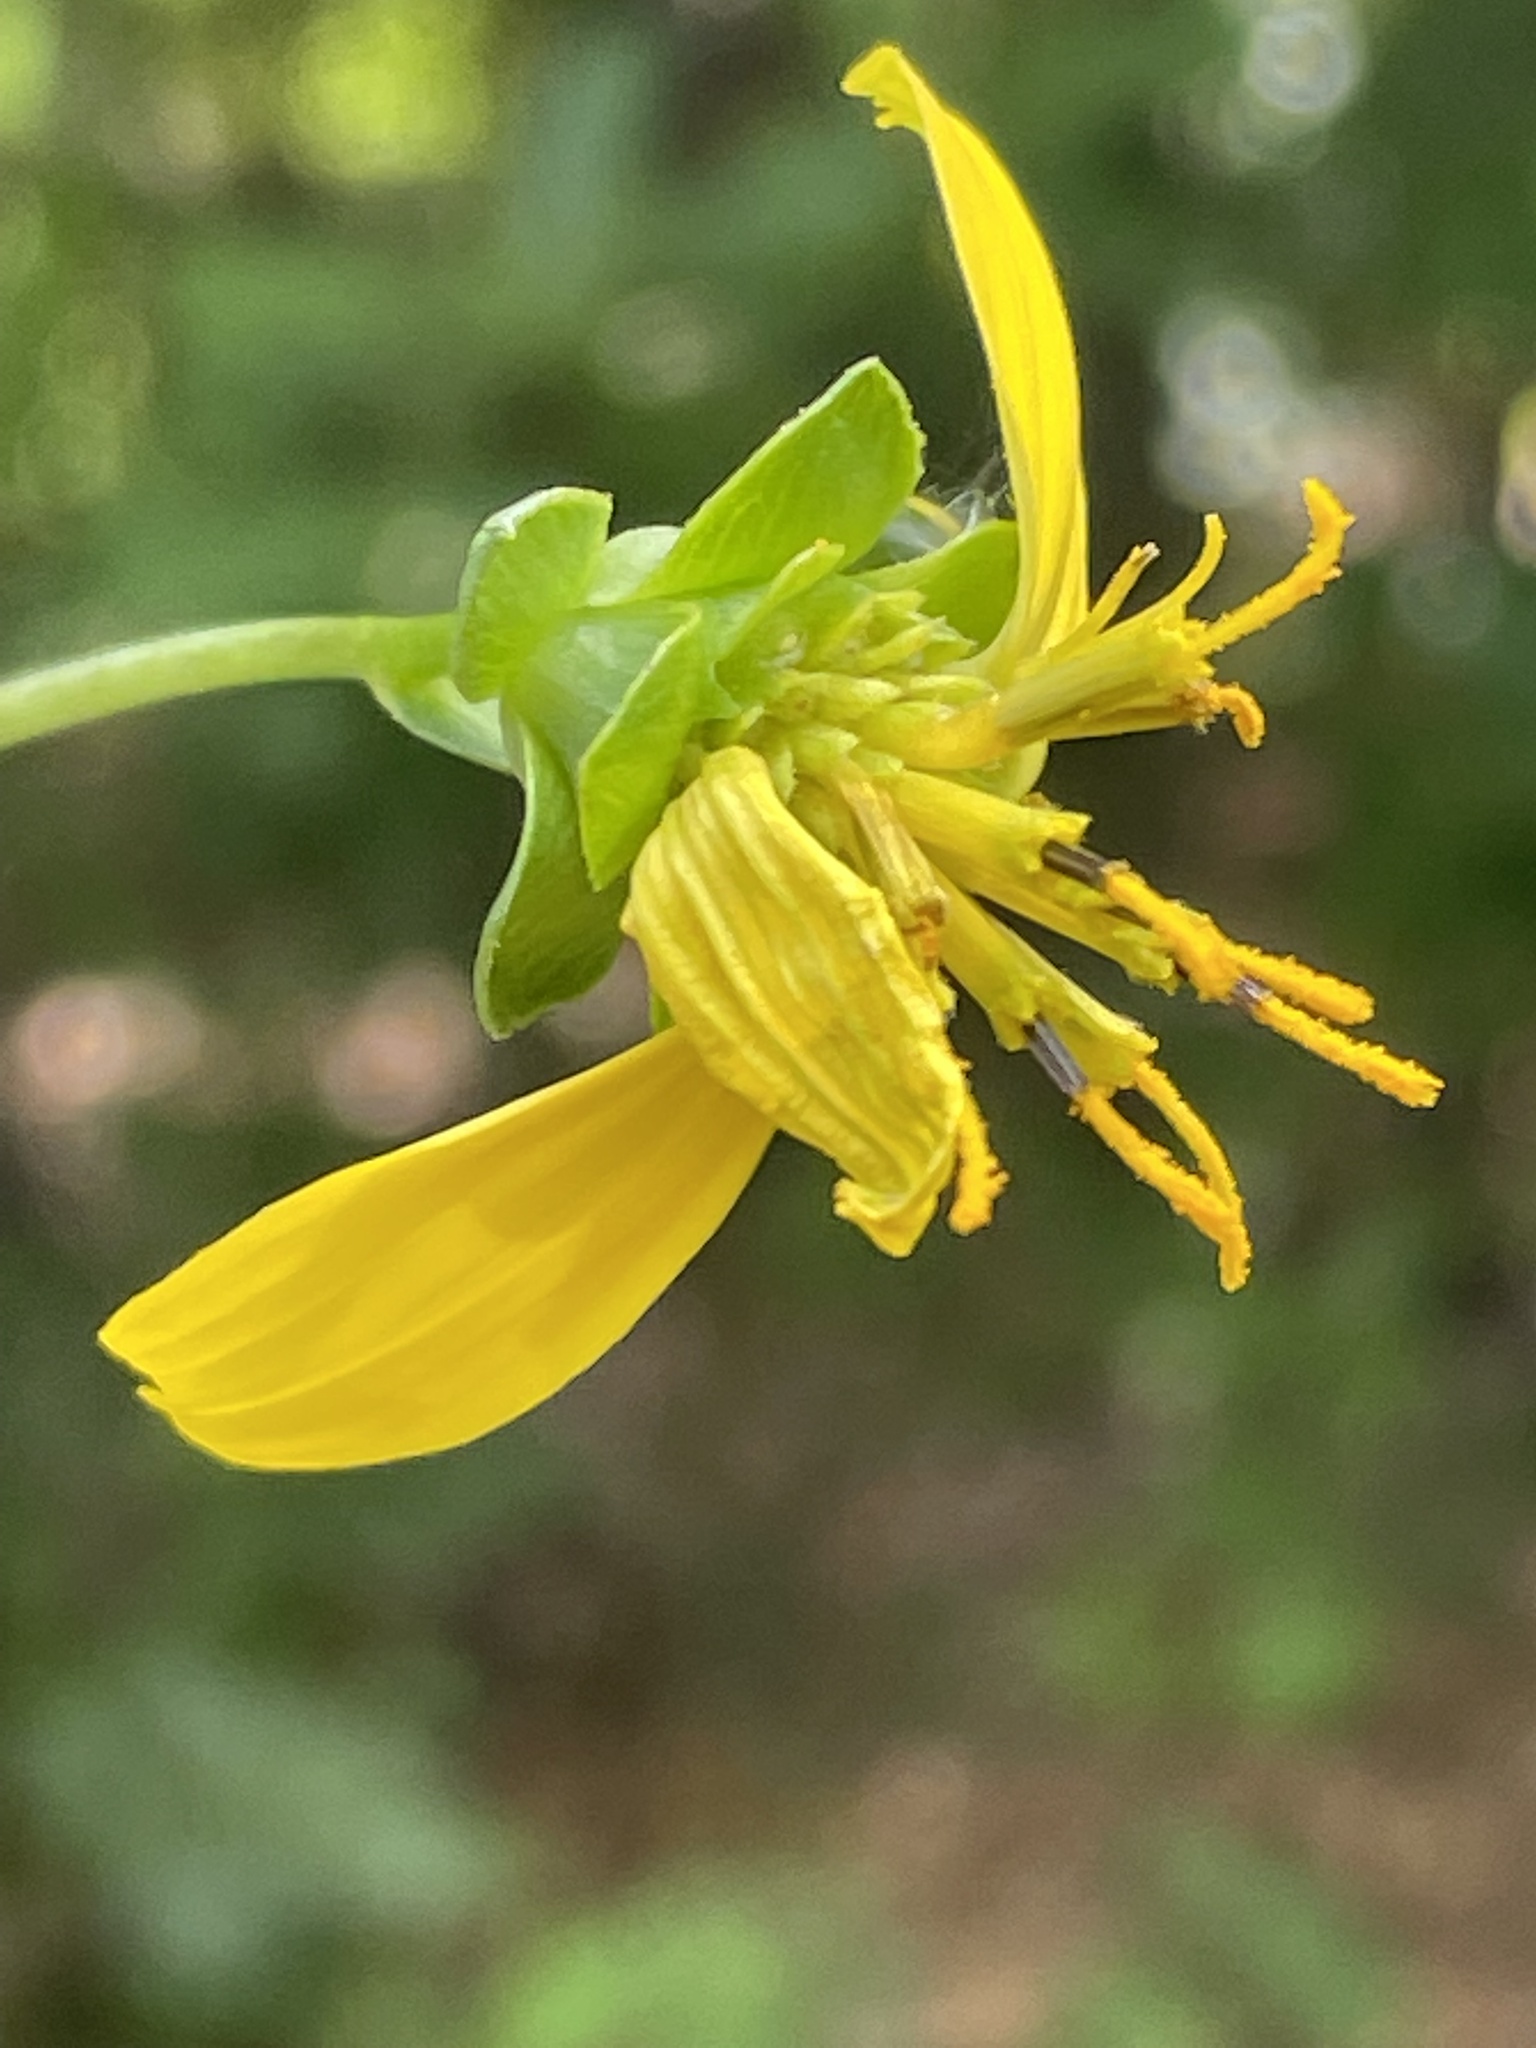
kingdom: Plantae
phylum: Tracheophyta
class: Magnoliopsida
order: Asterales
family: Asteraceae
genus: Silphium
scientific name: Silphium compositum
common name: Lesser basal-leaf rosinweed
